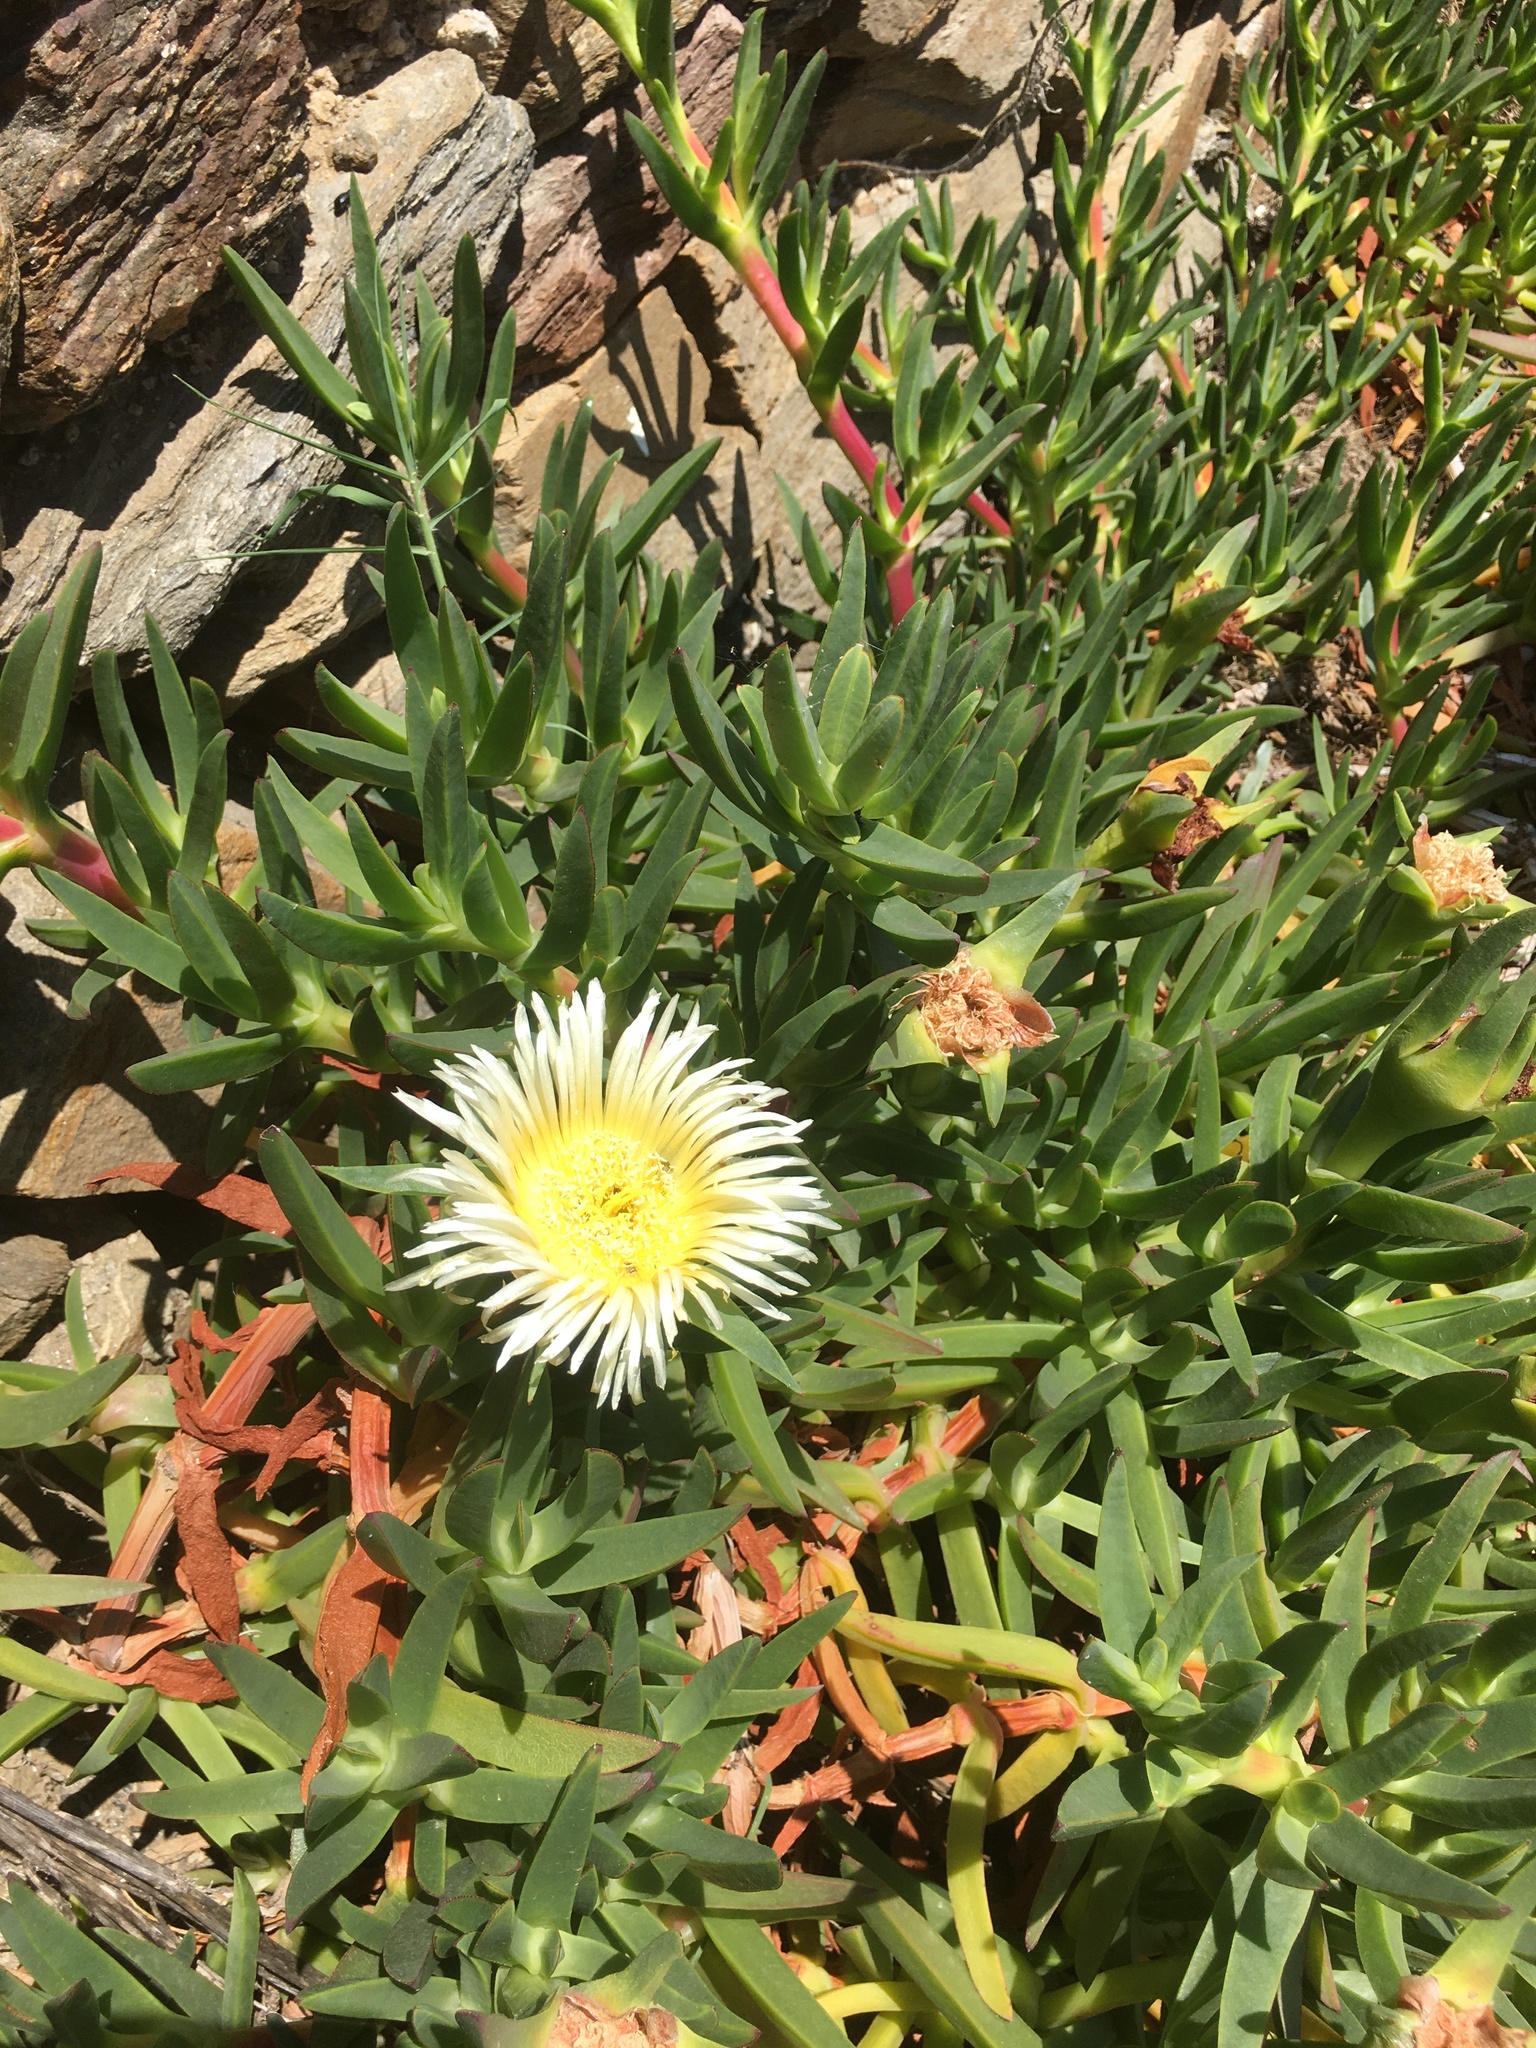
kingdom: Plantae
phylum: Tracheophyta
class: Magnoliopsida
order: Caryophyllales
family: Aizoaceae
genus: Carpobrotus
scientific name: Carpobrotus edulis
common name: Hottentot-fig
